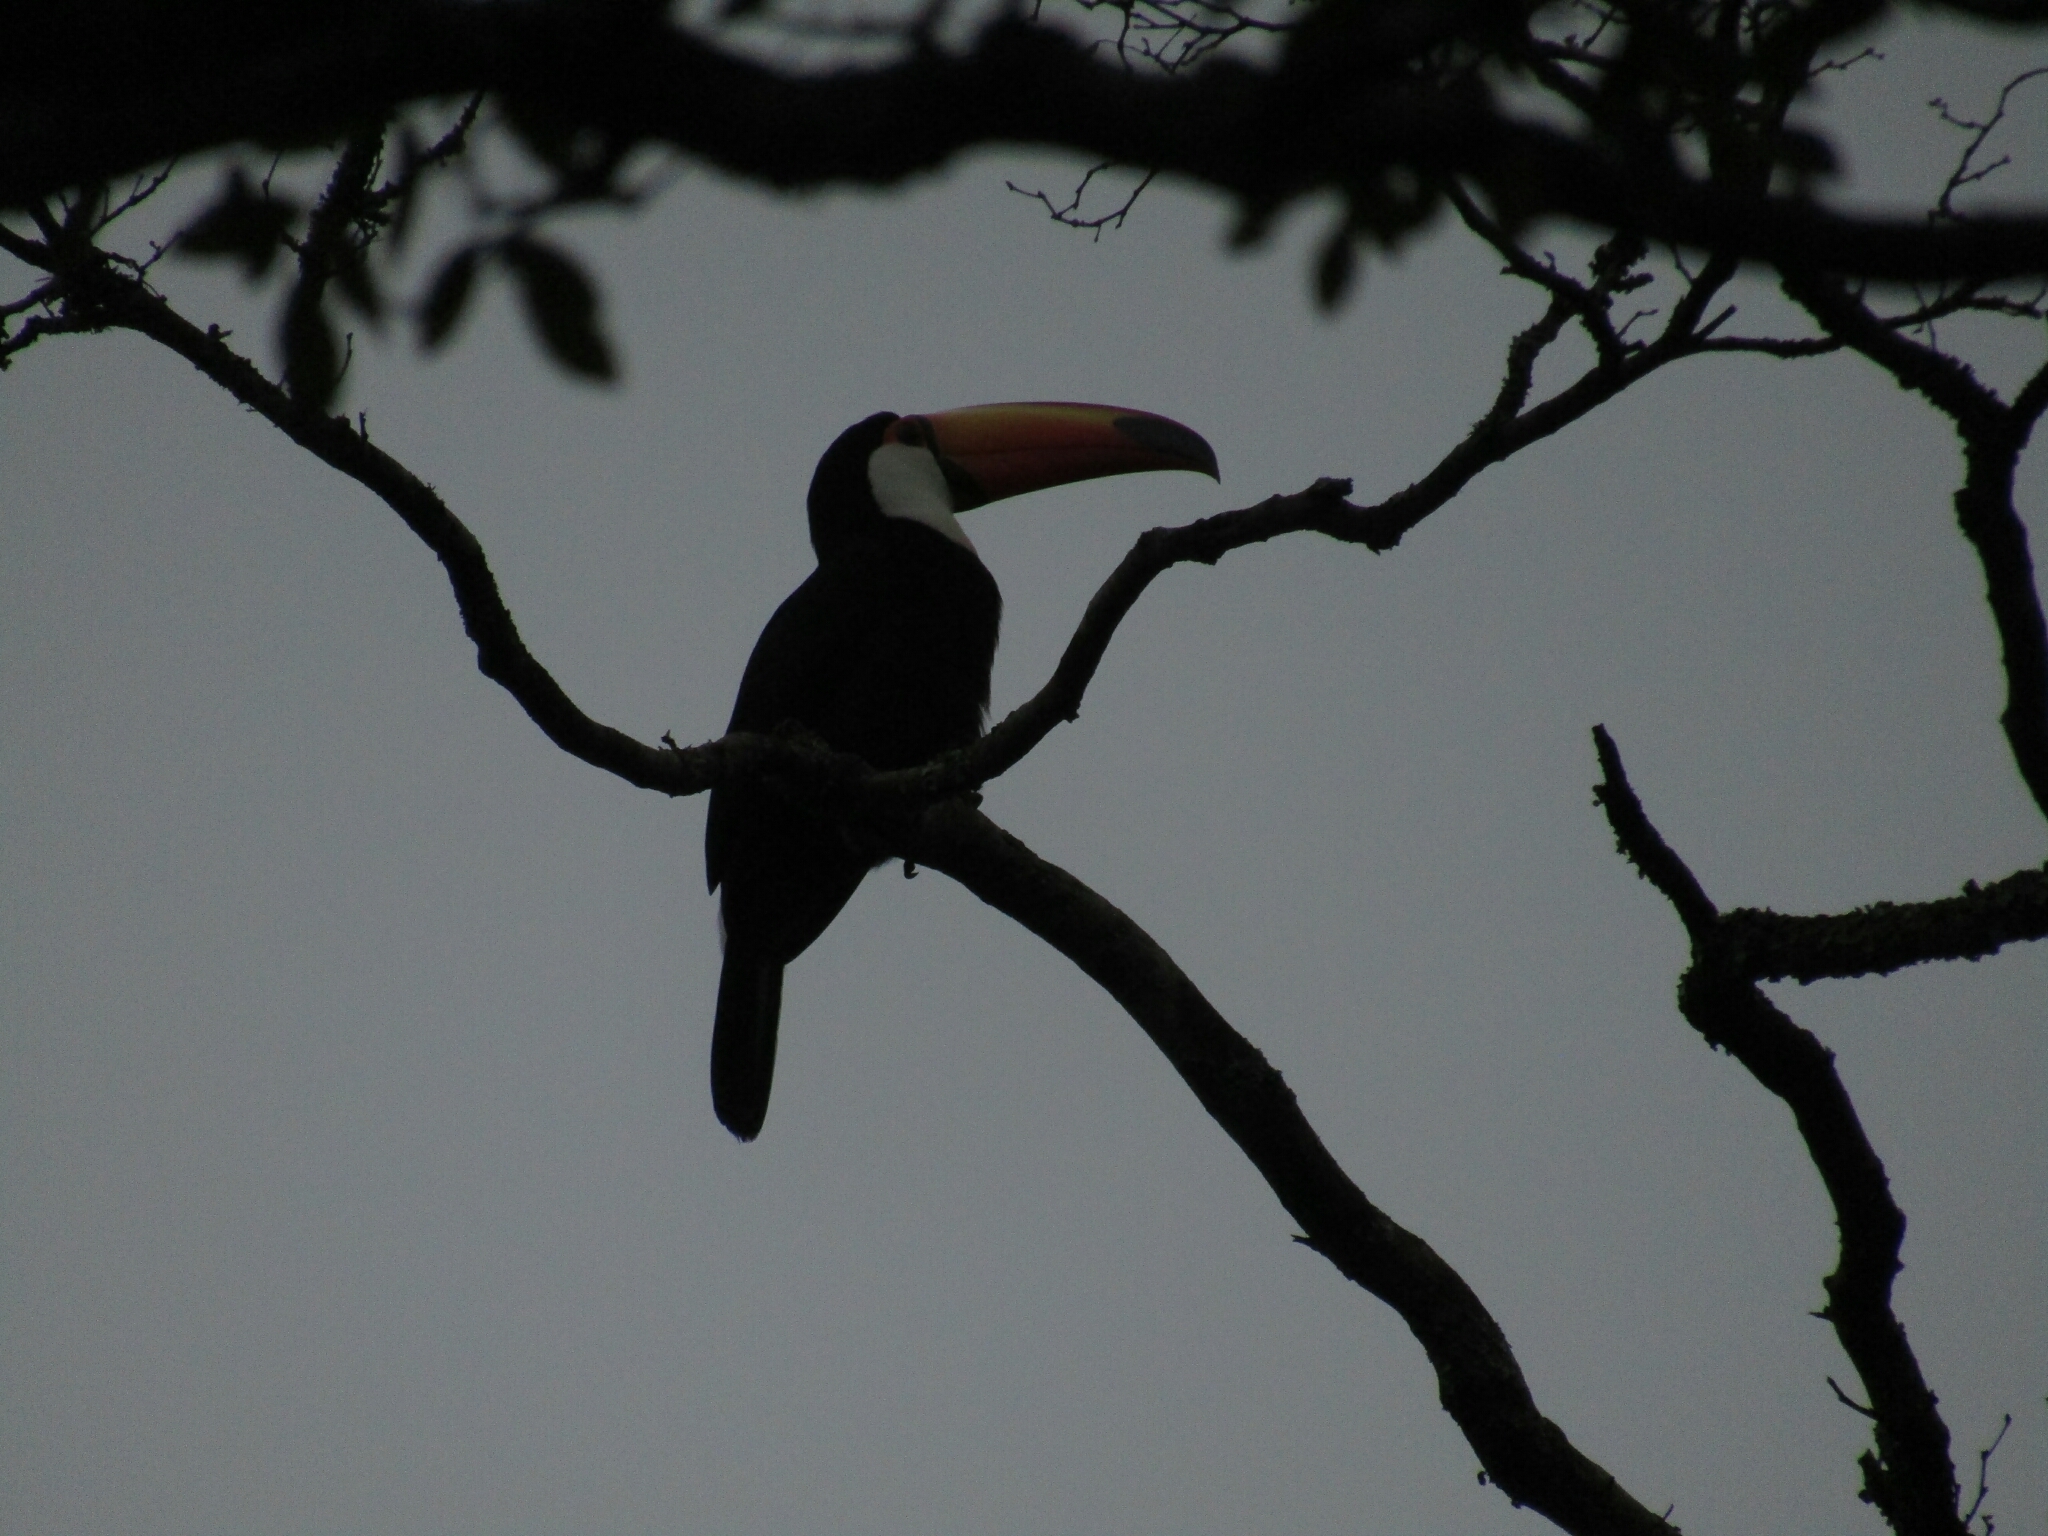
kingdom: Animalia
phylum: Chordata
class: Aves
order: Piciformes
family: Ramphastidae
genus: Ramphastos
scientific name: Ramphastos toco
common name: Toco toucan
